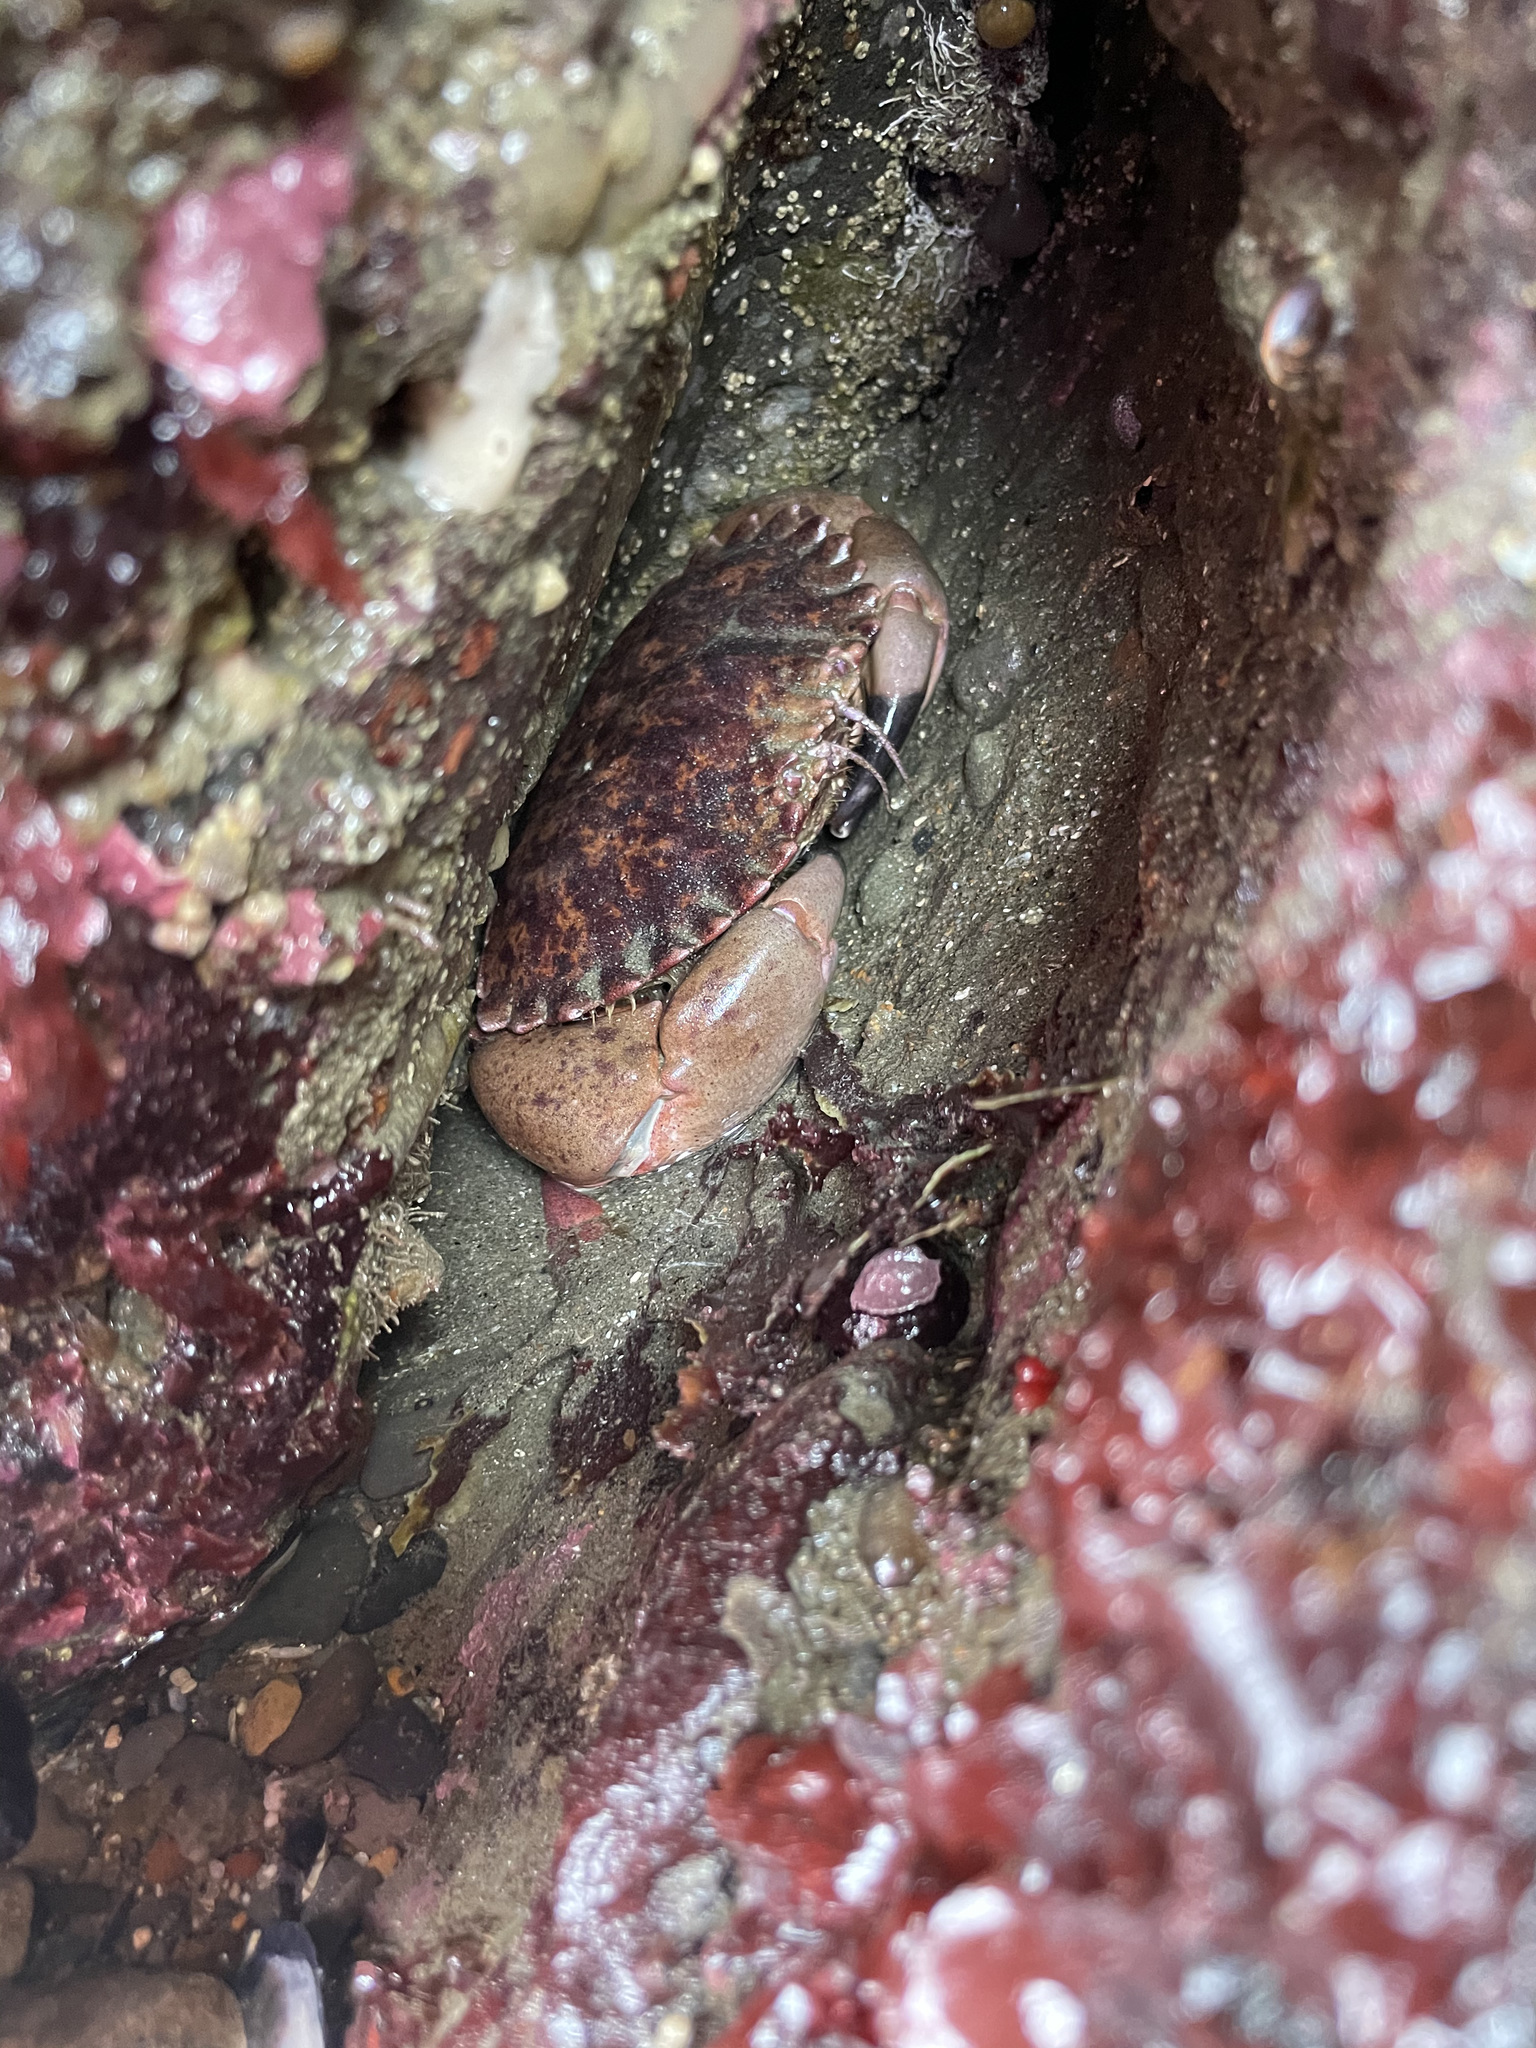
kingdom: Animalia
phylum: Arthropoda
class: Malacostraca
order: Decapoda
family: Cancridae
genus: Romaleon
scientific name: Romaleon antennarium
